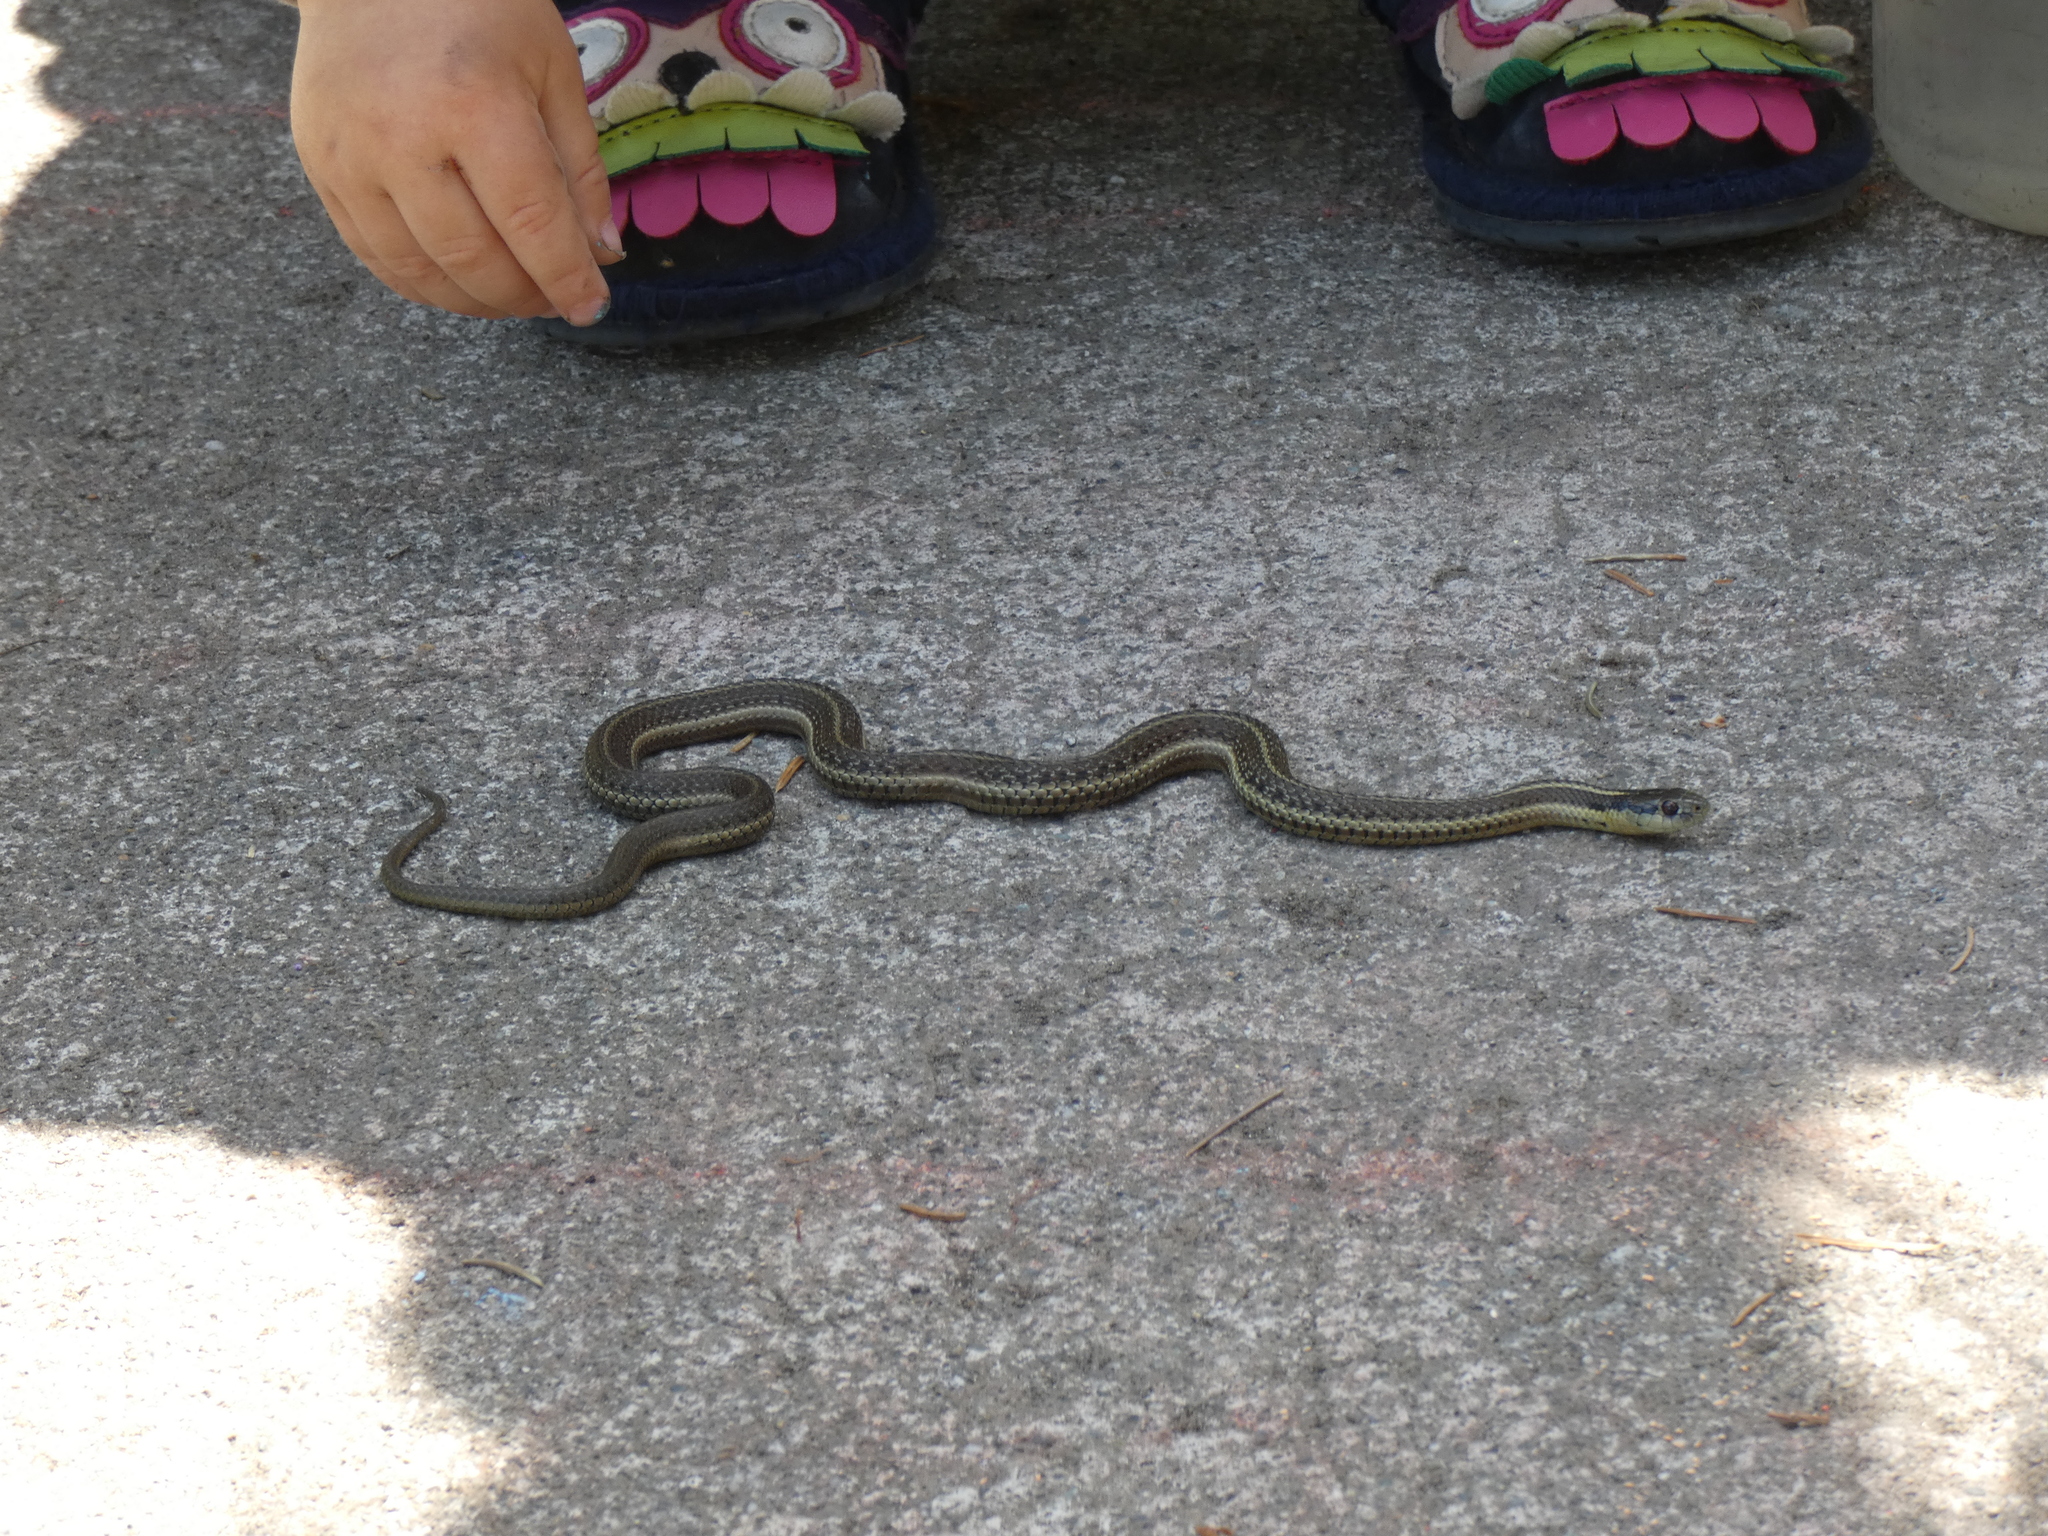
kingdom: Animalia
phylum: Chordata
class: Squamata
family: Colubridae
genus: Thamnophis
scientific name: Thamnophis ordinoides
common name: Northwestern garter snake
